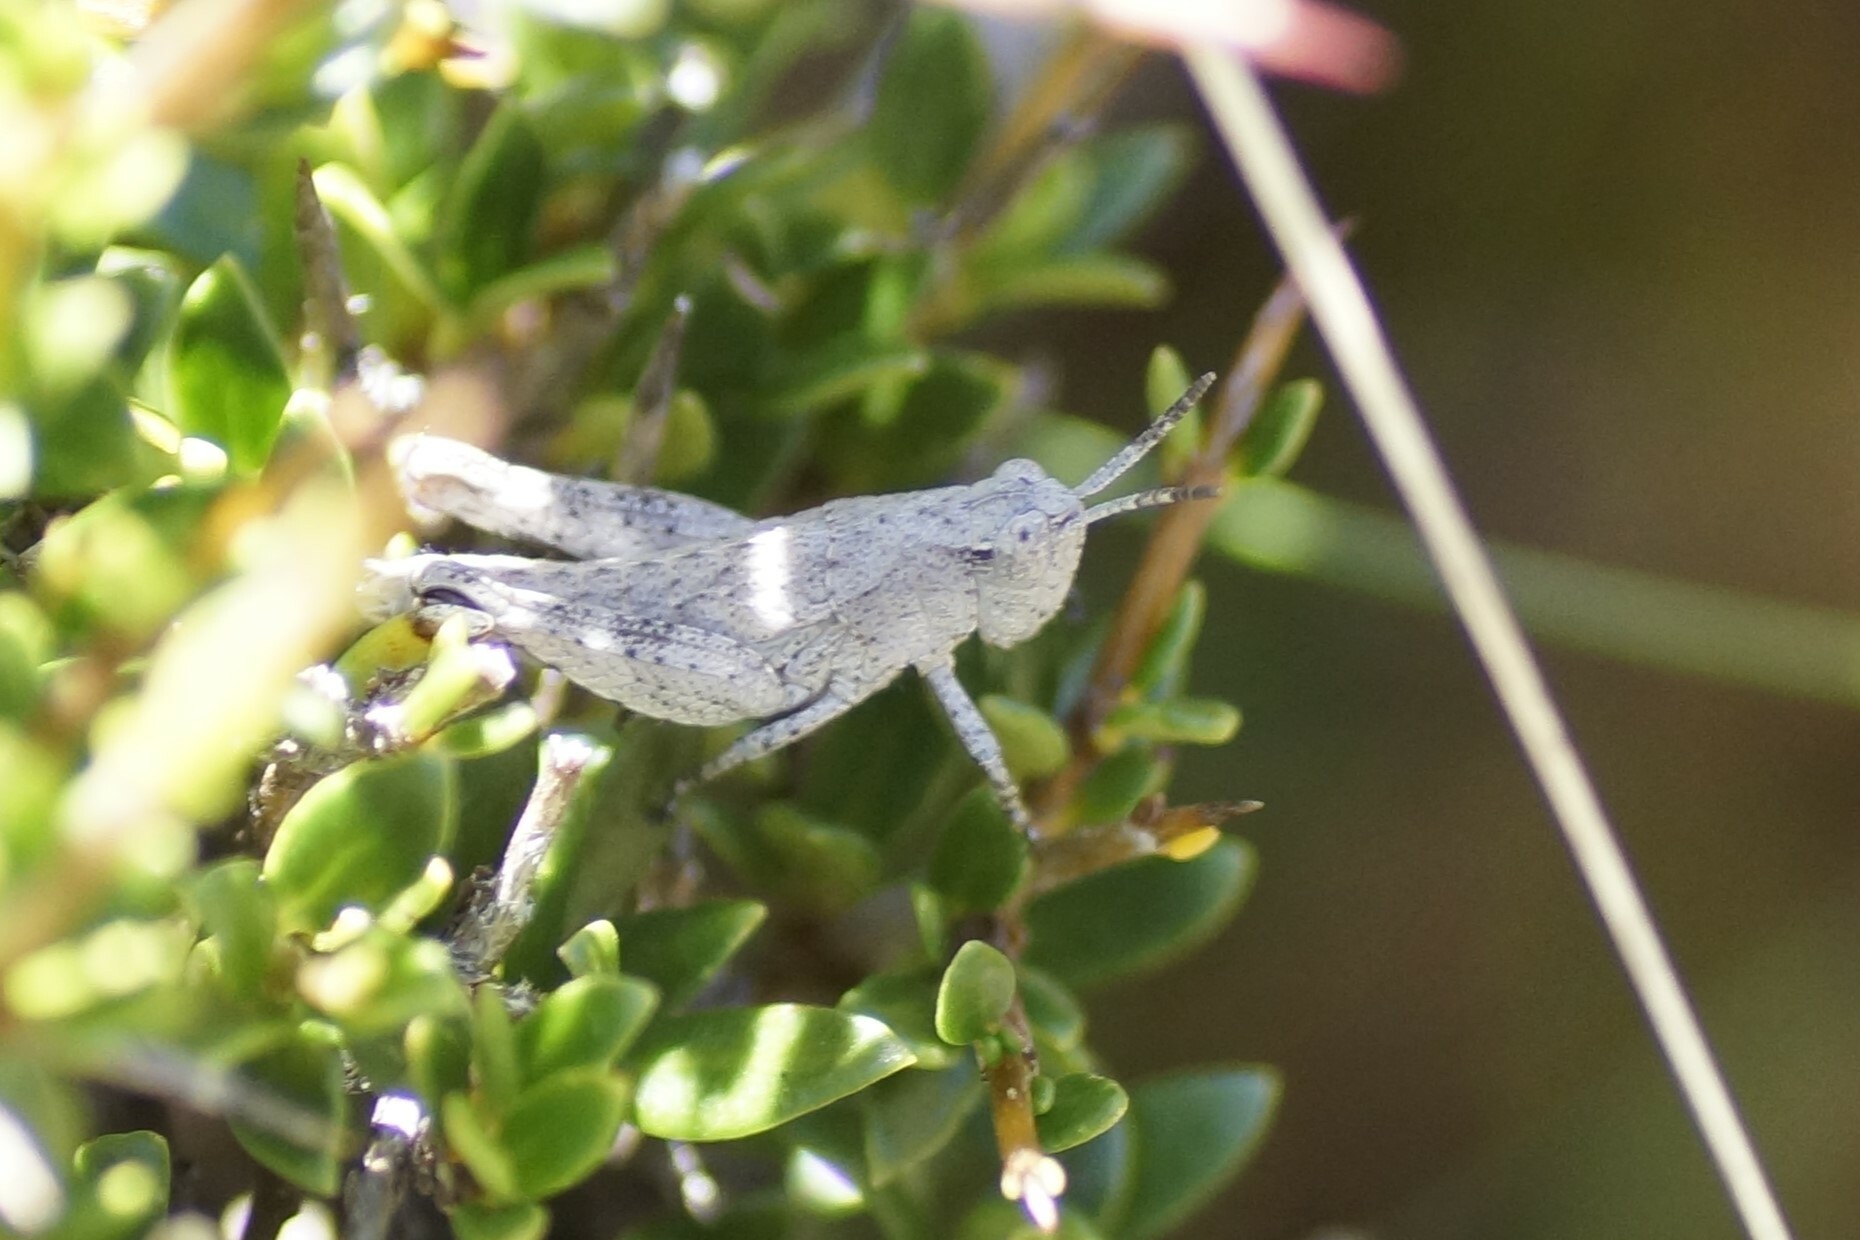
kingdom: Animalia
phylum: Arthropoda
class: Insecta
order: Orthoptera
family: Acrididae
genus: Tasmaniacris
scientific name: Tasmaniacris tasmaniensis
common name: Tasmanian grasshopper
